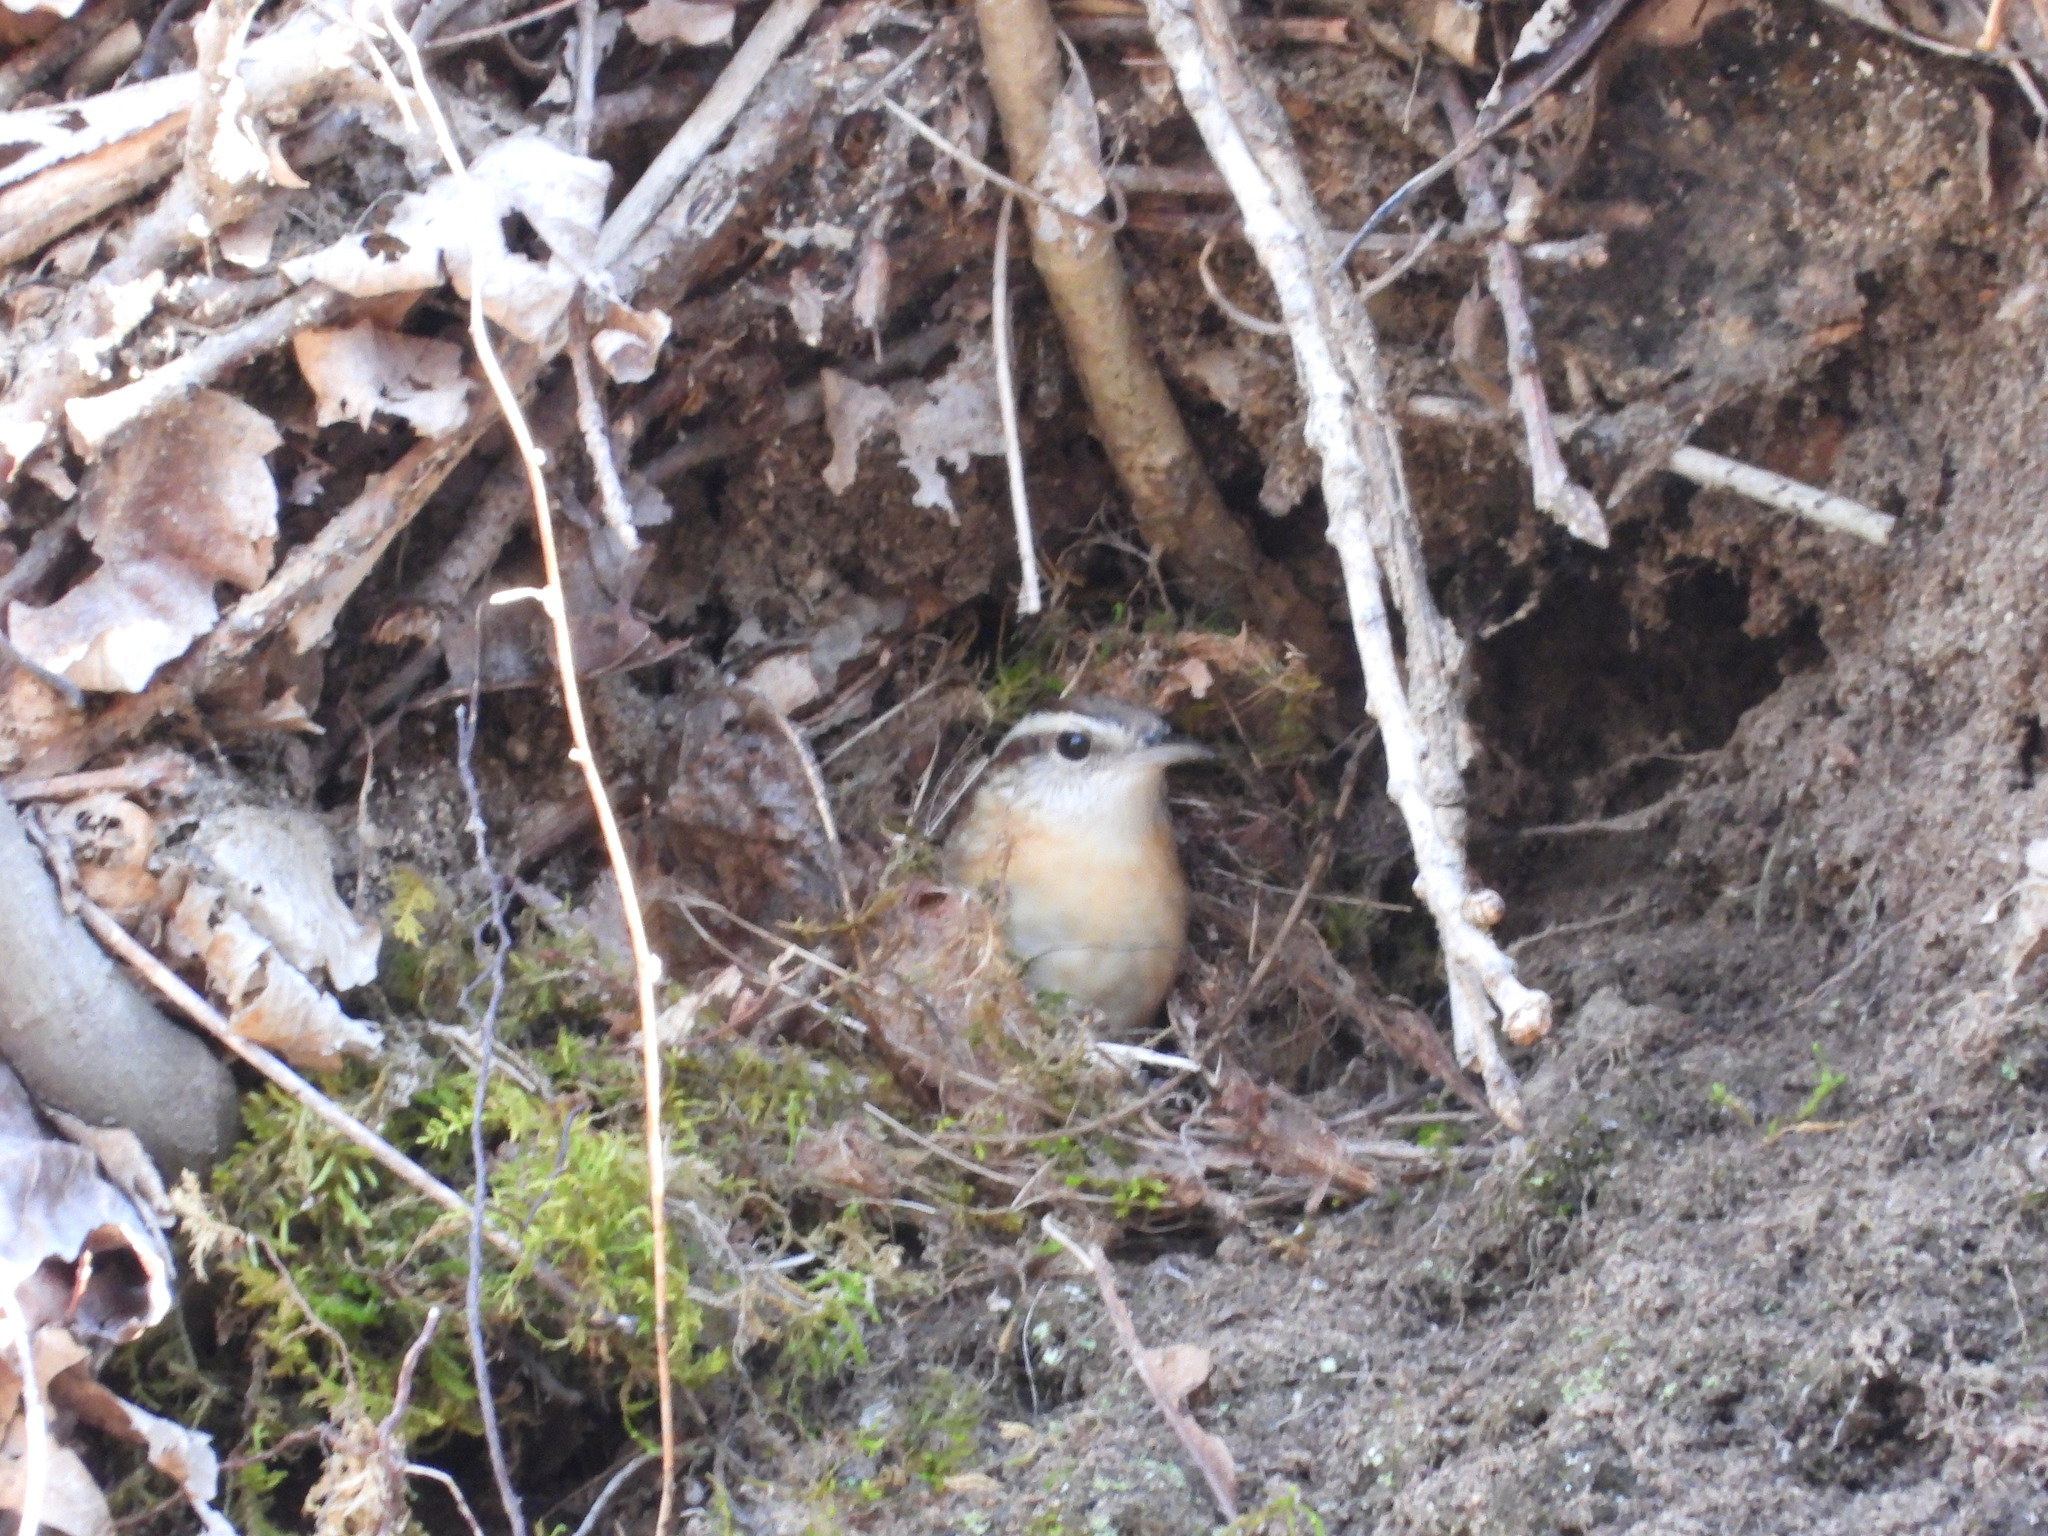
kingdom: Animalia
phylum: Chordata
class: Aves
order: Passeriformes
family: Troglodytidae
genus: Thryothorus
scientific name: Thryothorus ludovicianus
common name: Carolina wren
